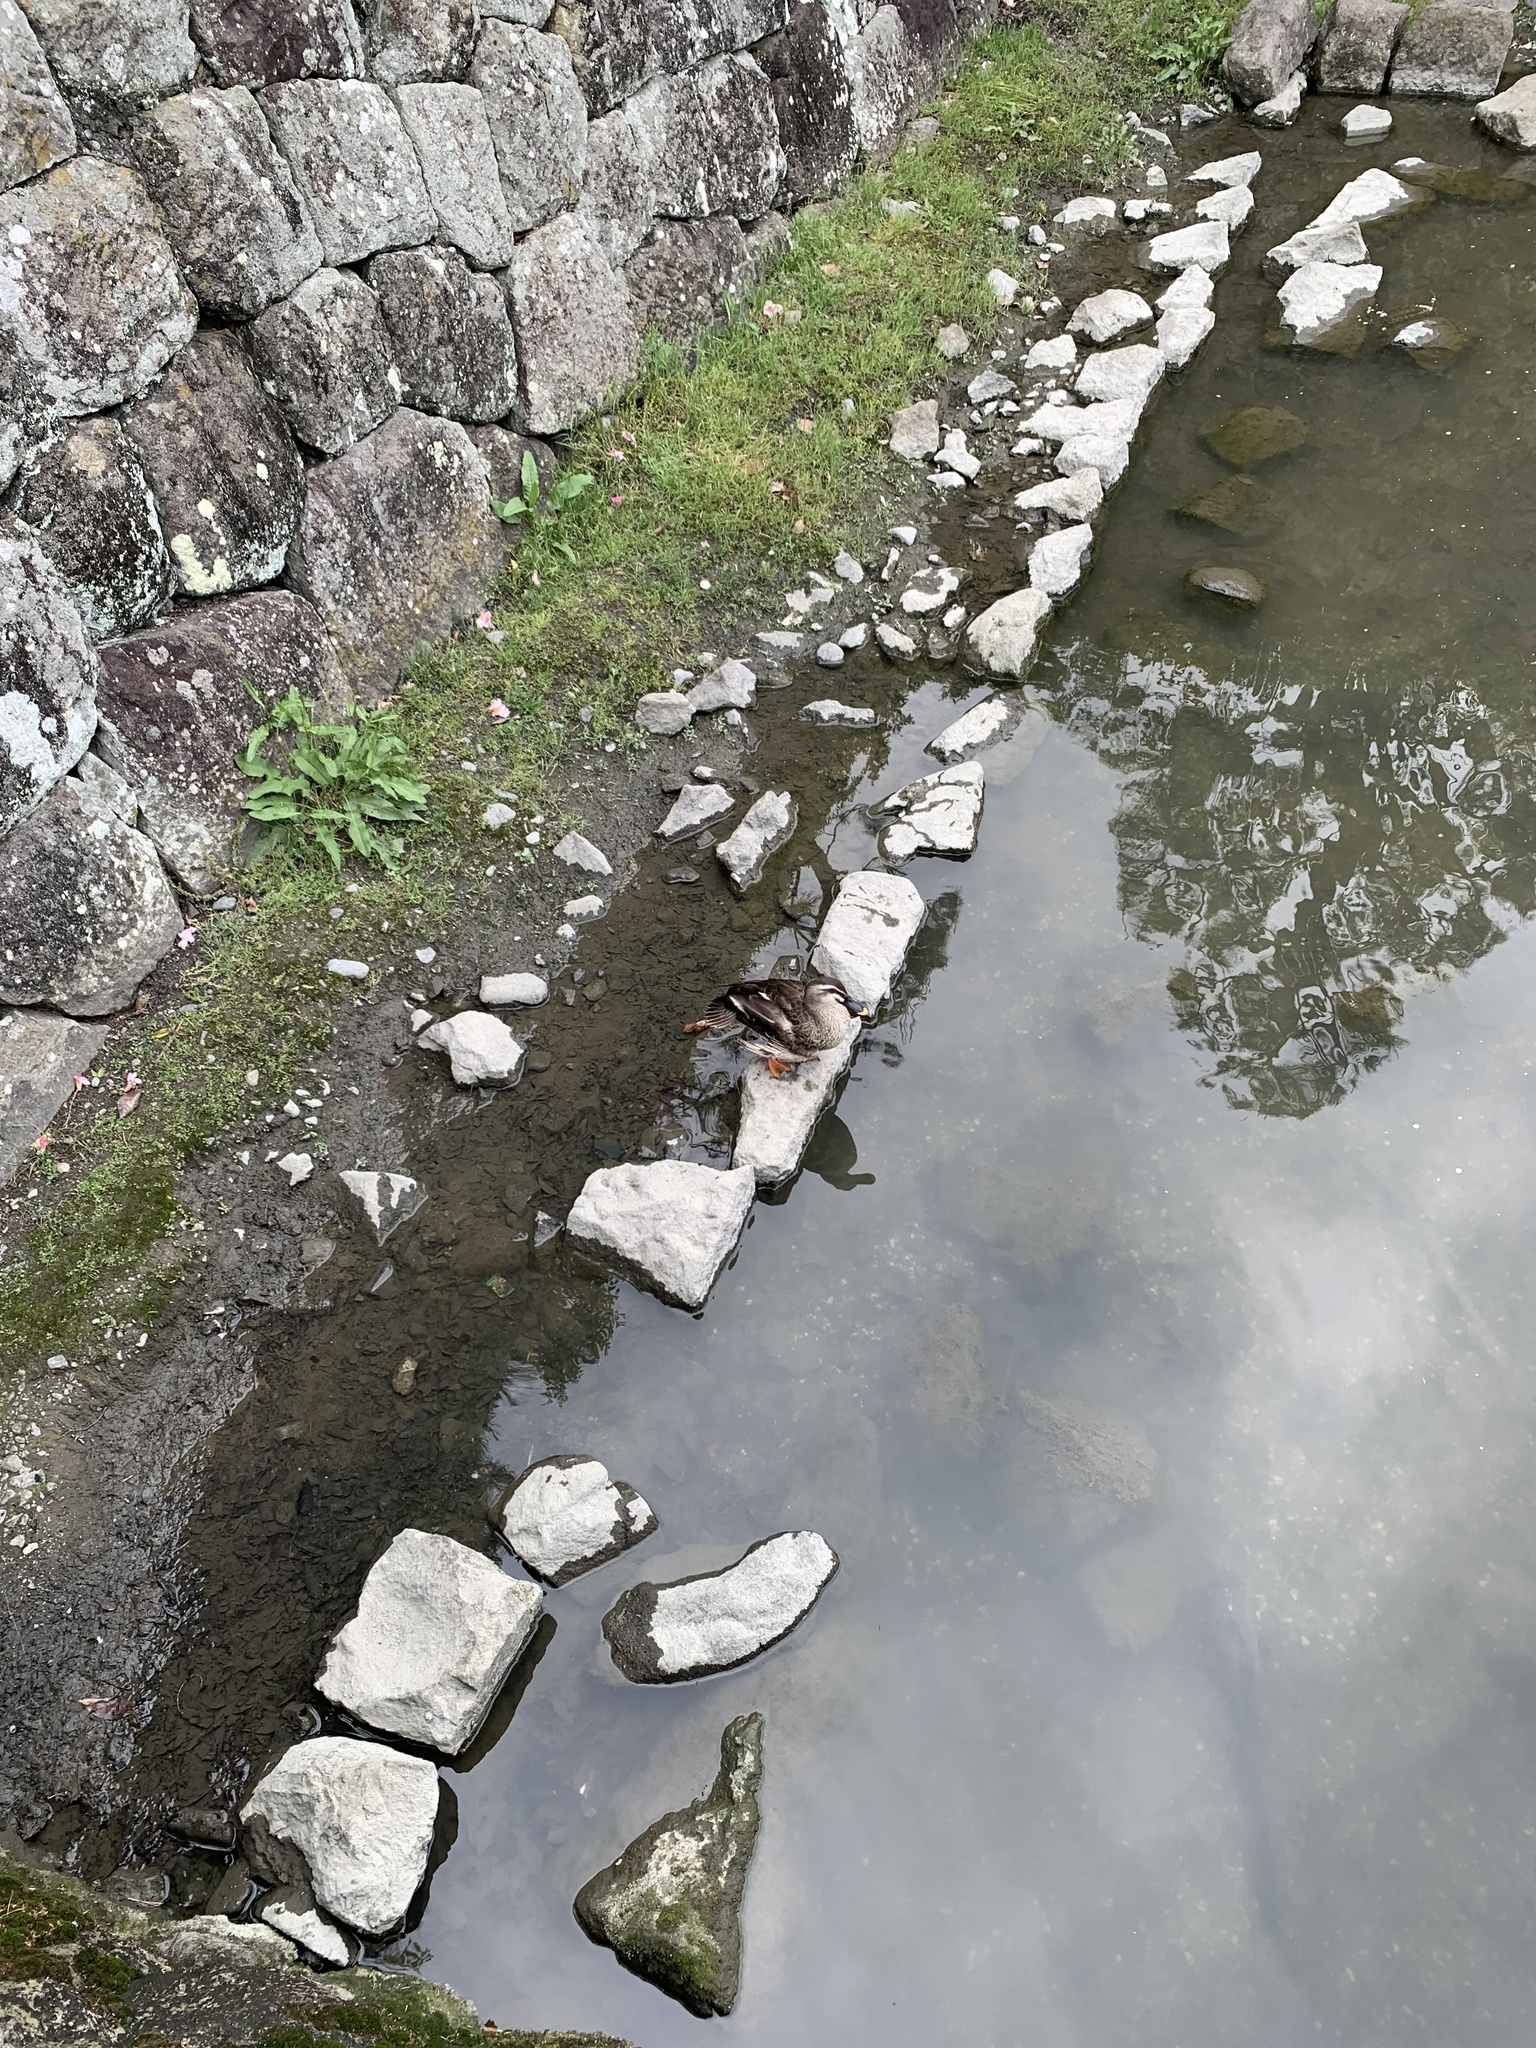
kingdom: Animalia
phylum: Chordata
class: Aves
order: Anseriformes
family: Anatidae
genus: Anas
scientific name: Anas zonorhyncha
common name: Eastern spot-billed duck
